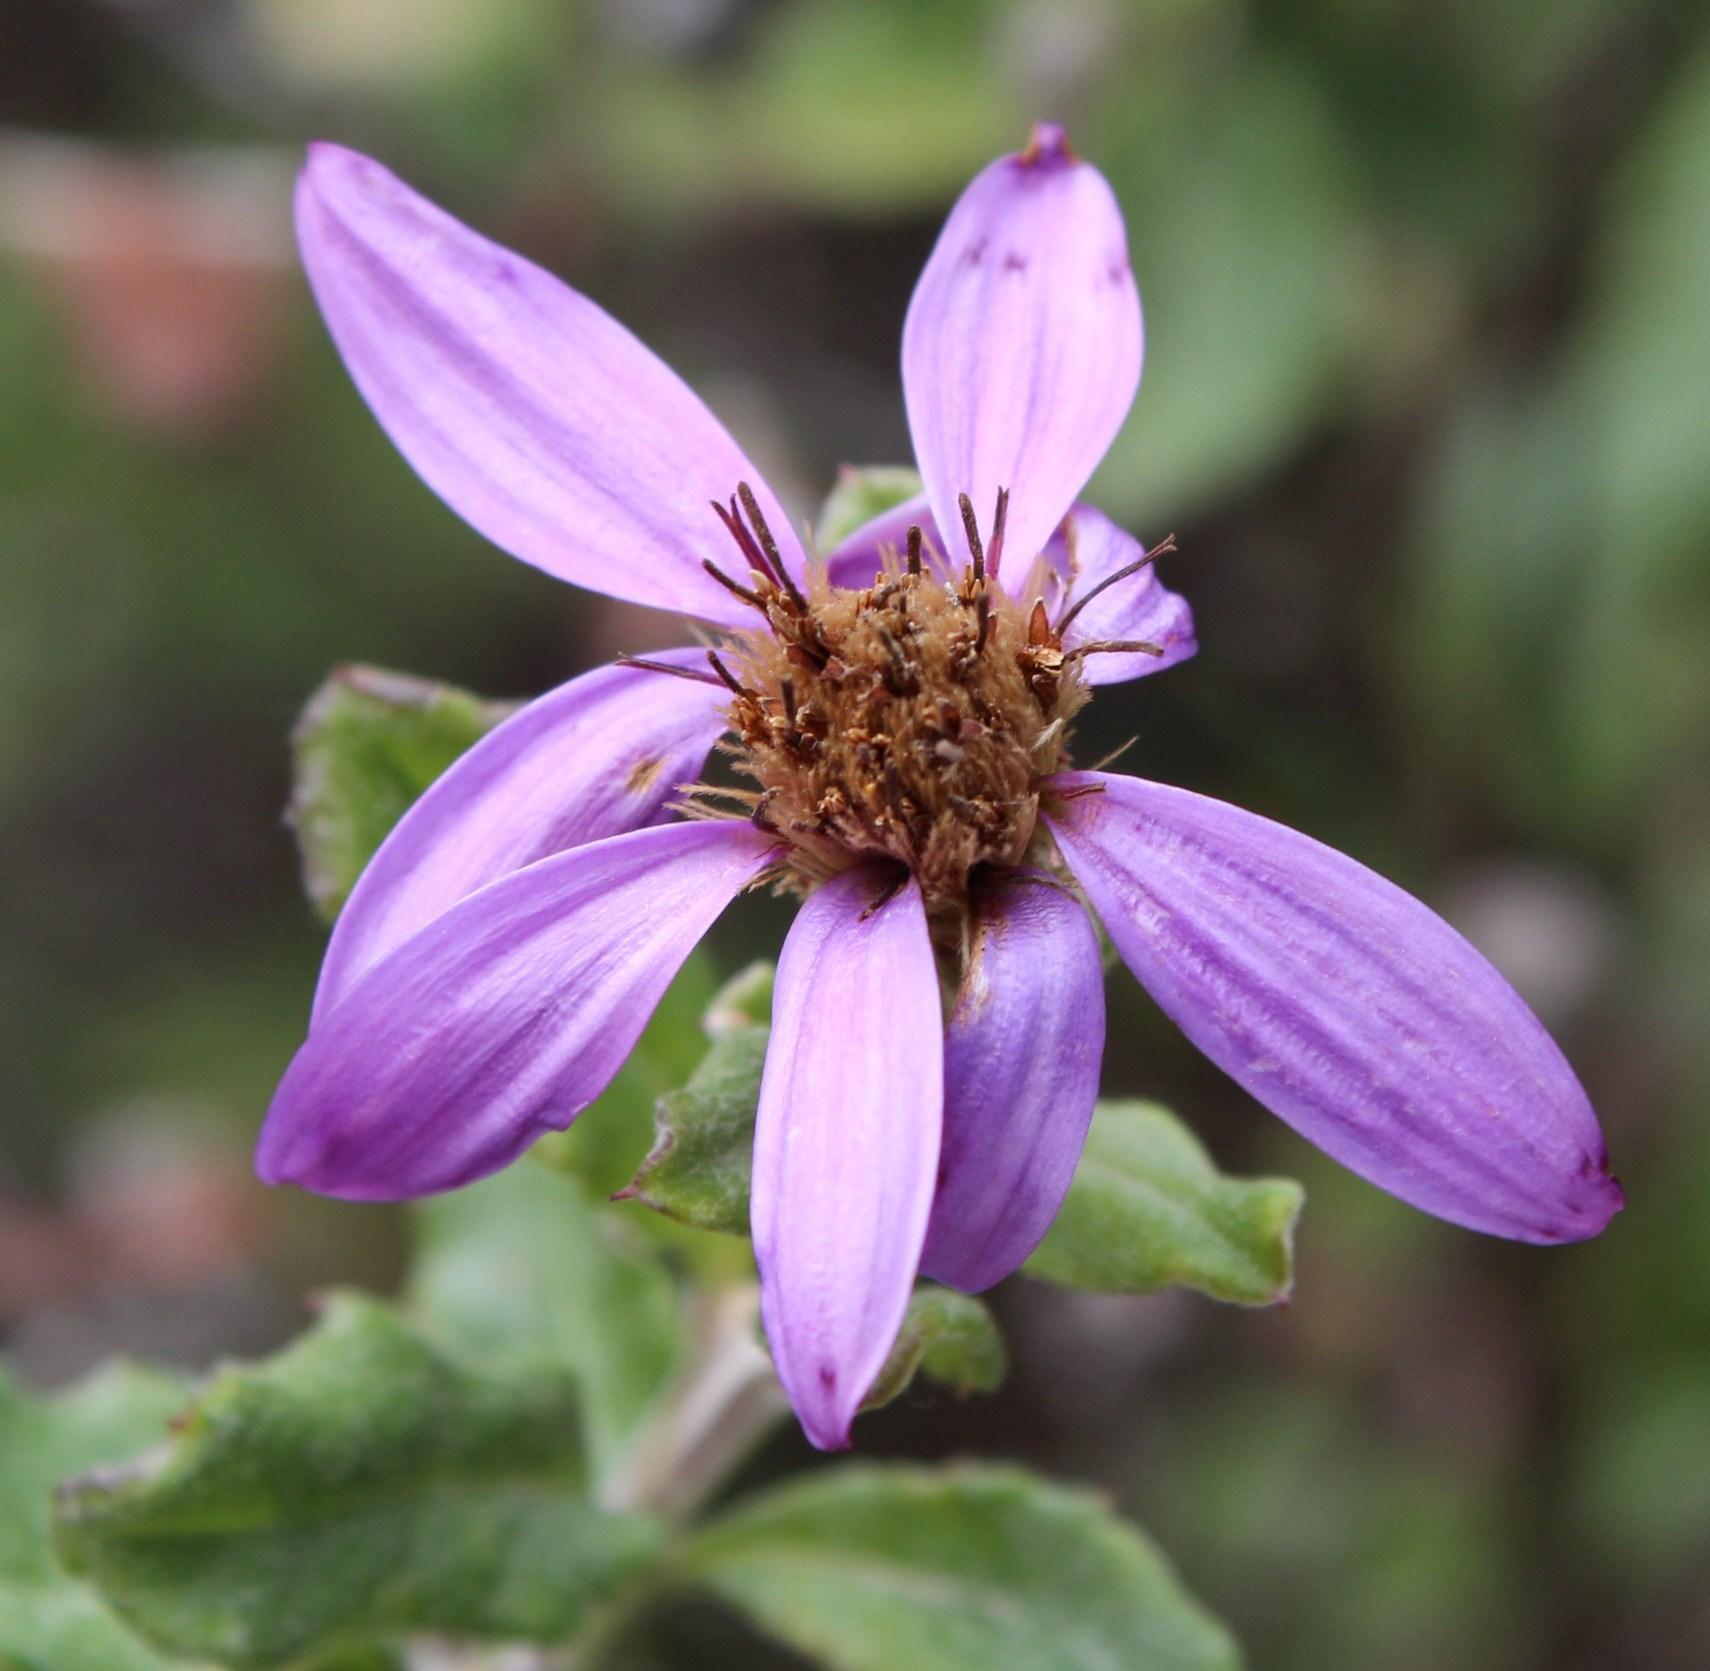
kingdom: Plantae
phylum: Tracheophyta
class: Magnoliopsida
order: Asterales
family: Asteraceae
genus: Printzia
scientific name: Printzia polifolia
